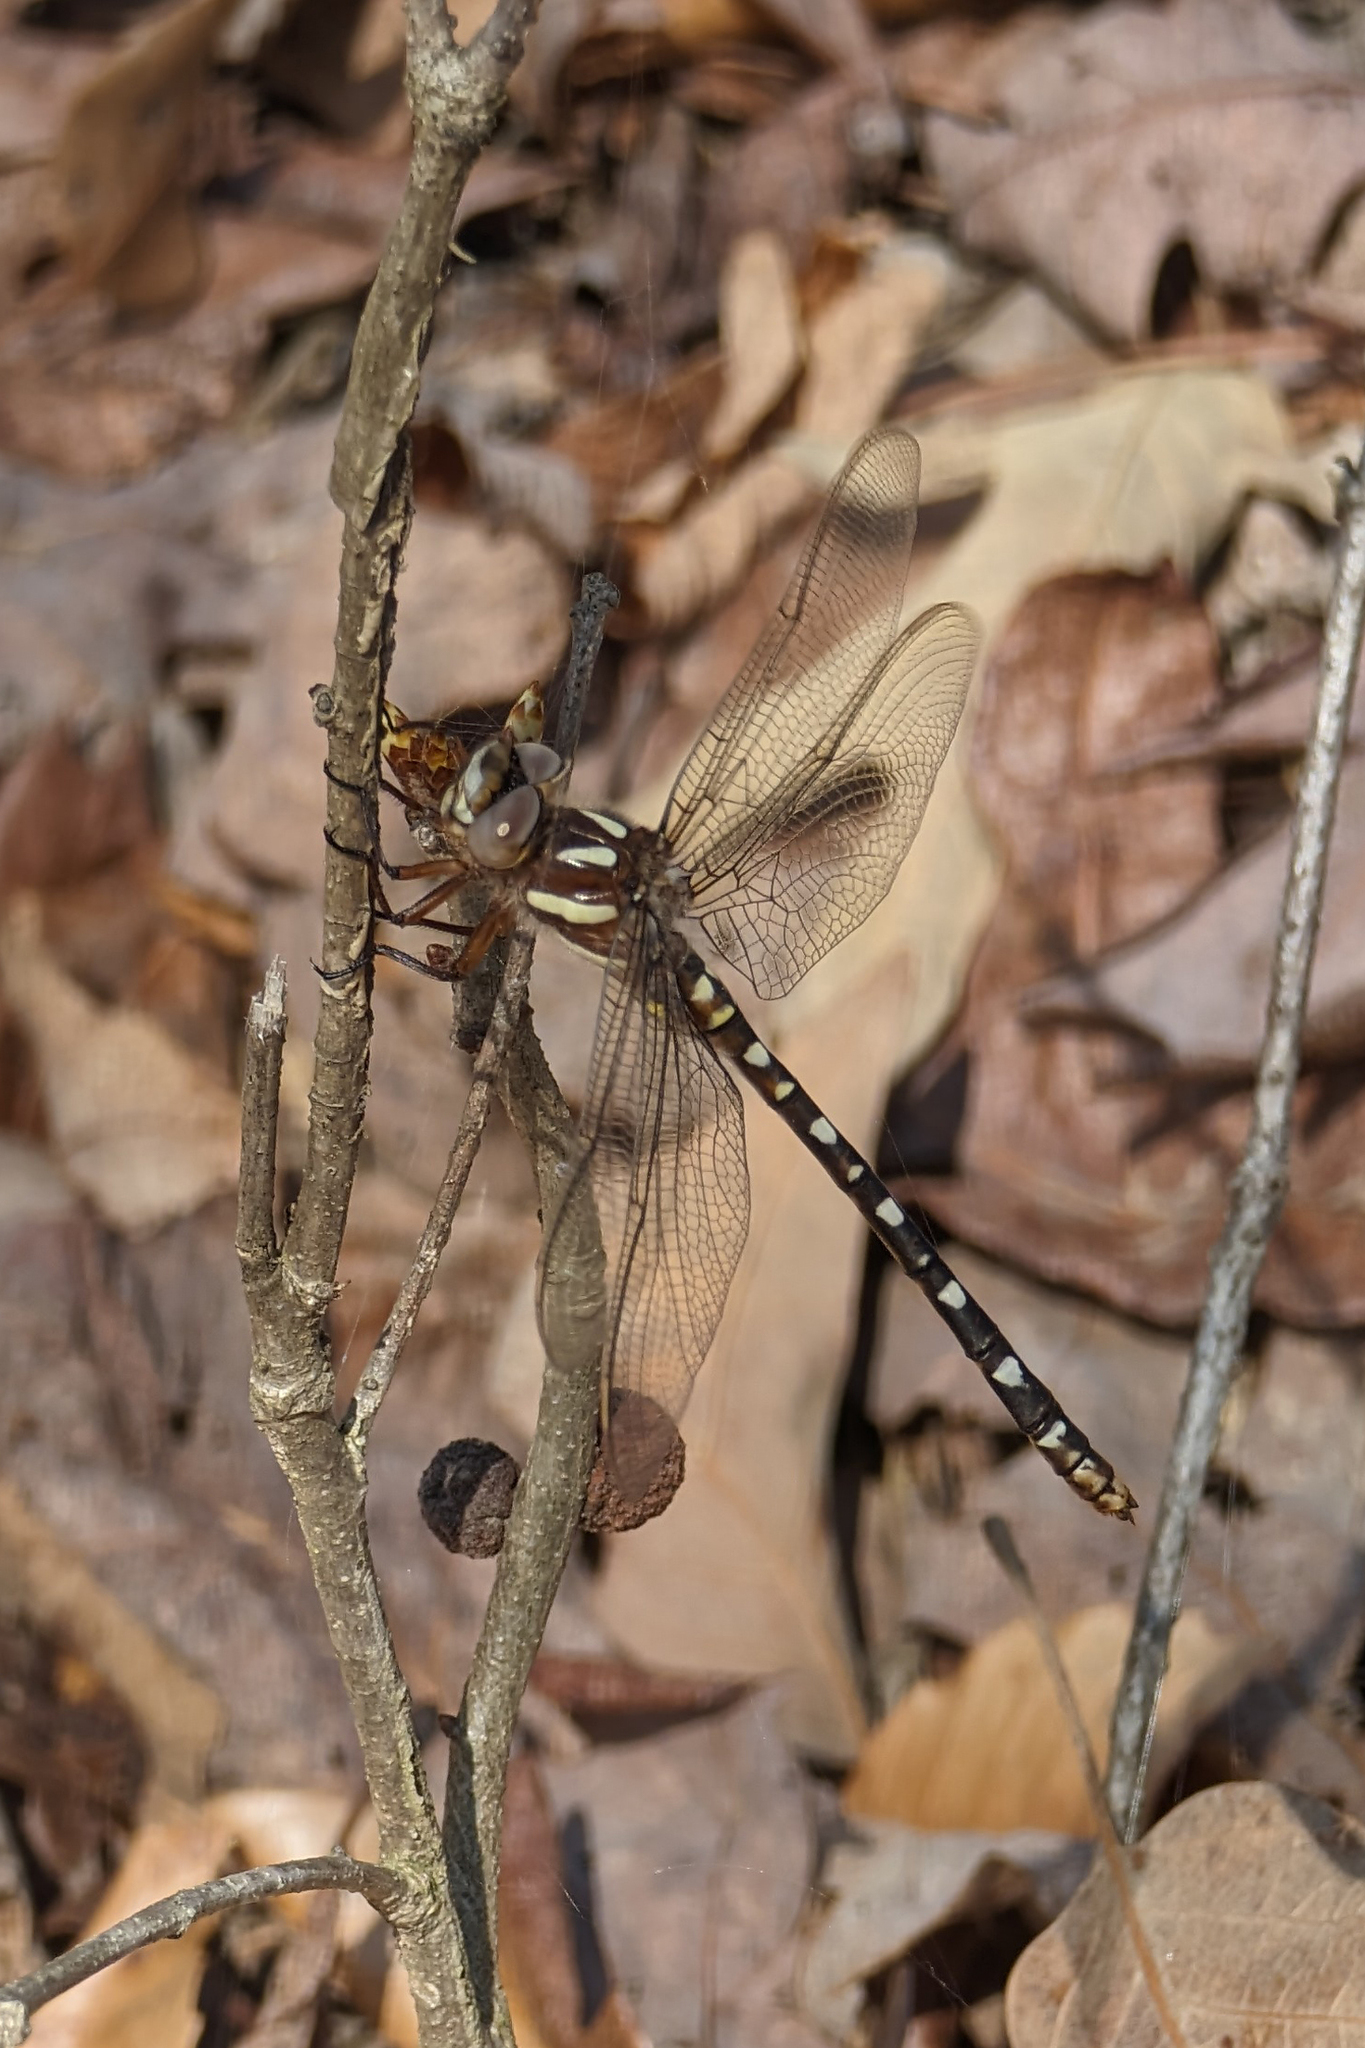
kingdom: Animalia
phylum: Arthropoda
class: Insecta
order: Odonata
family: Cordulegastridae
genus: Cordulegaster
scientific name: Cordulegaster maculata
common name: Twin-spotted spiketail
